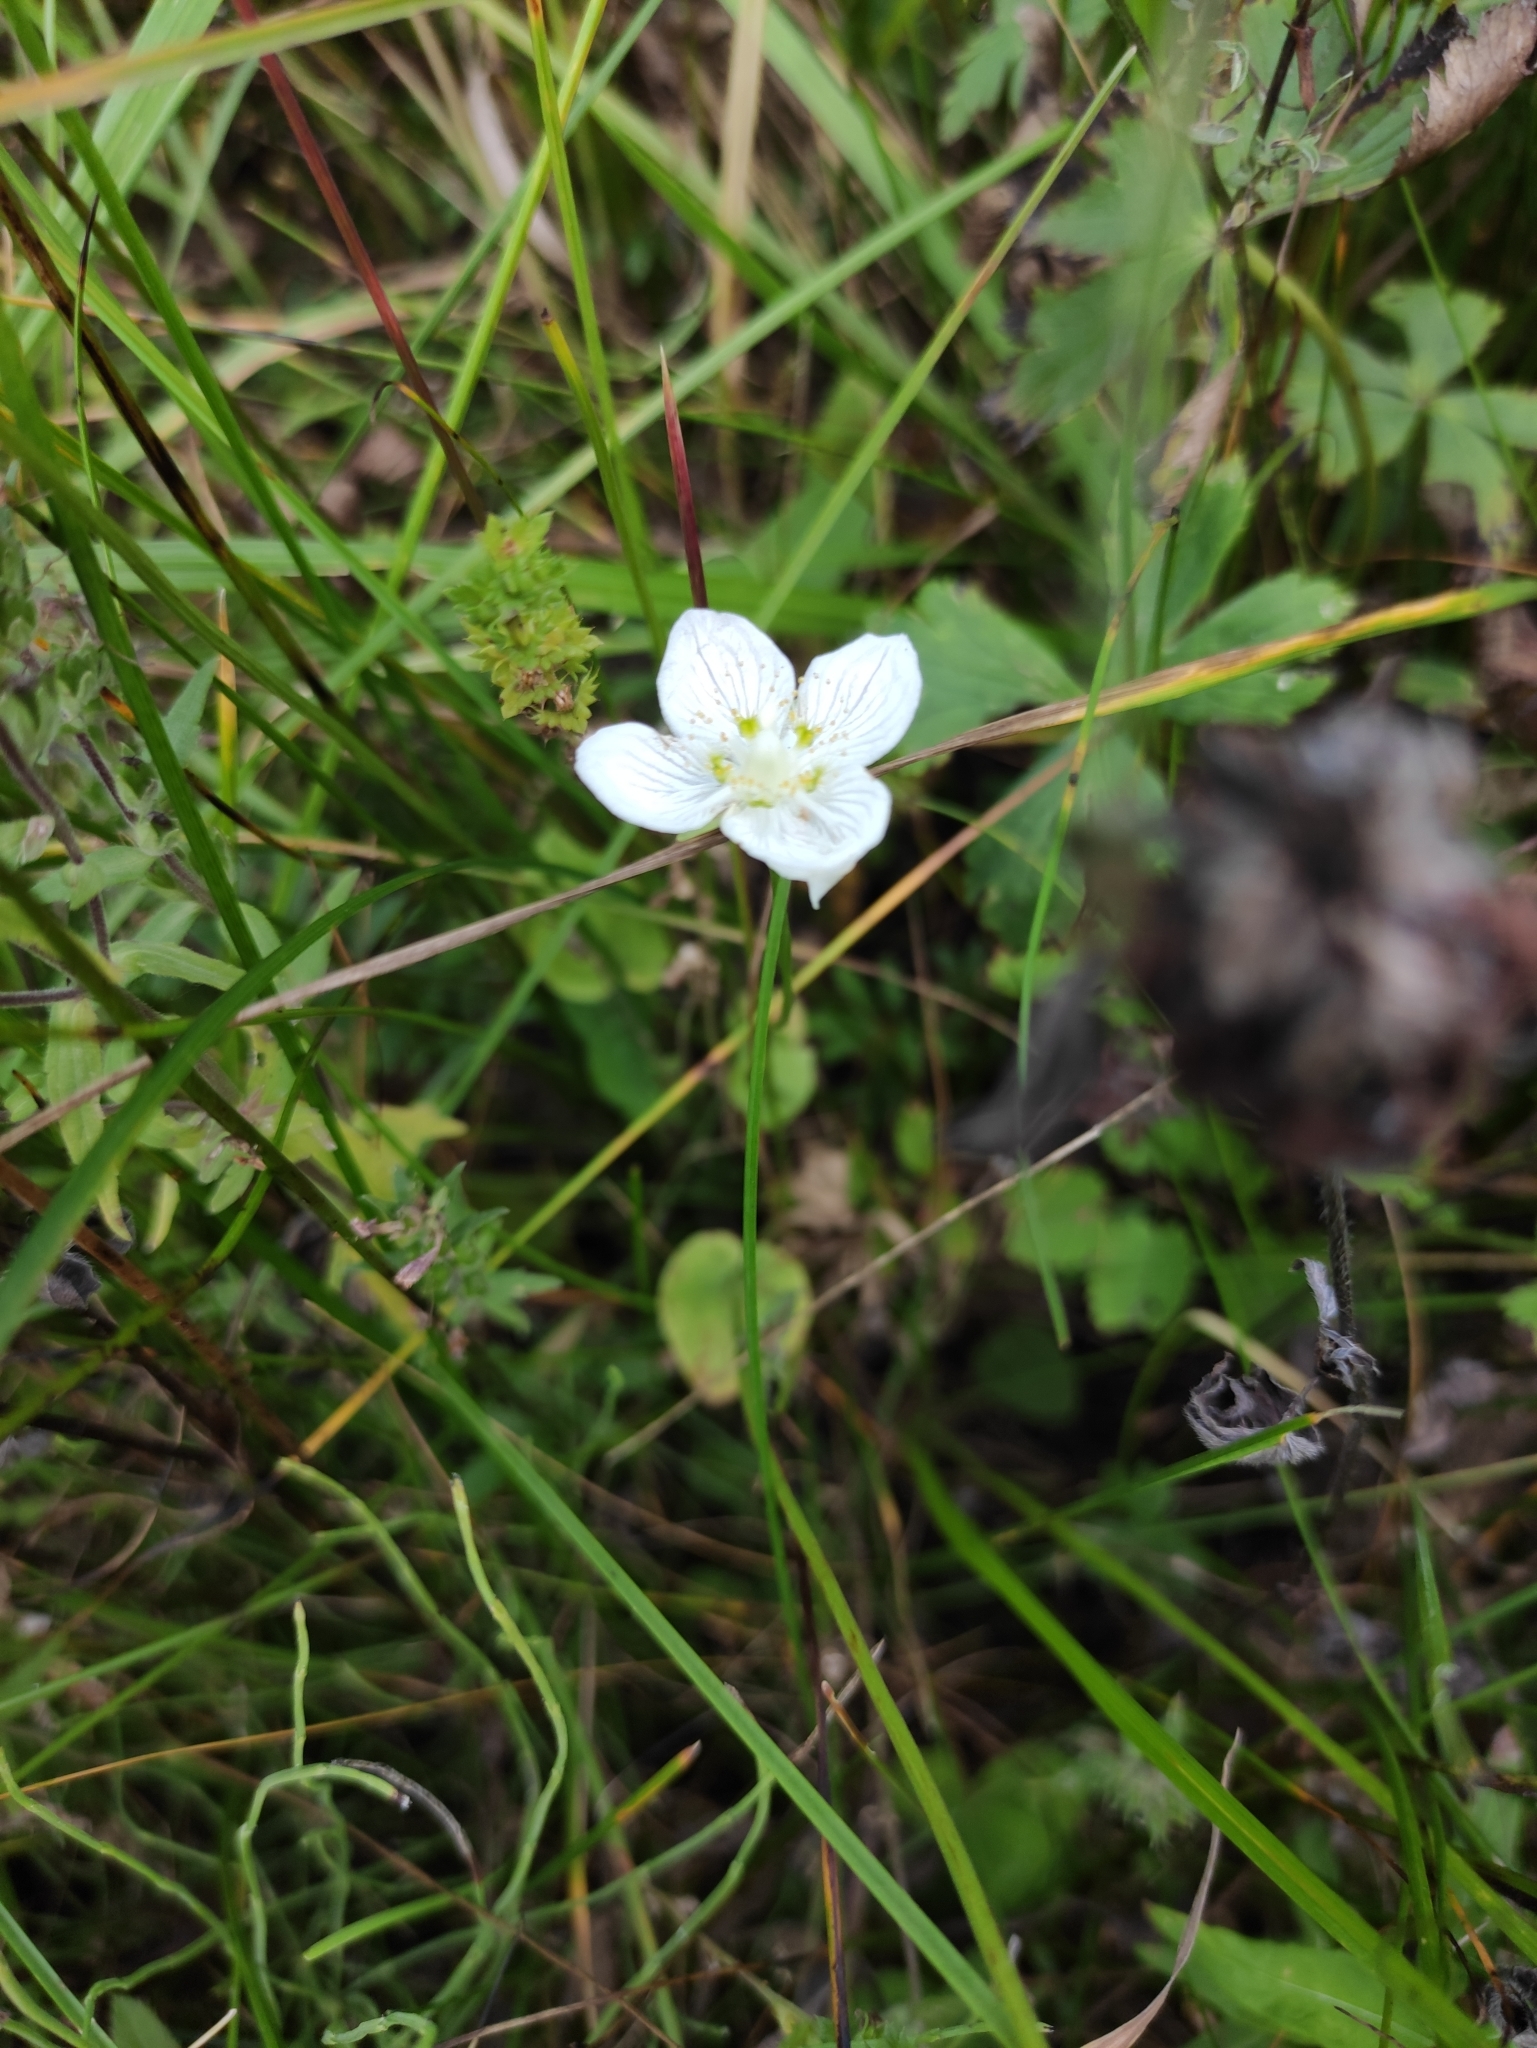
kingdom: Plantae
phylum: Tracheophyta
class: Magnoliopsida
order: Celastrales
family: Parnassiaceae
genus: Parnassia
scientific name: Parnassia palustris
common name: Grass-of-parnassus
